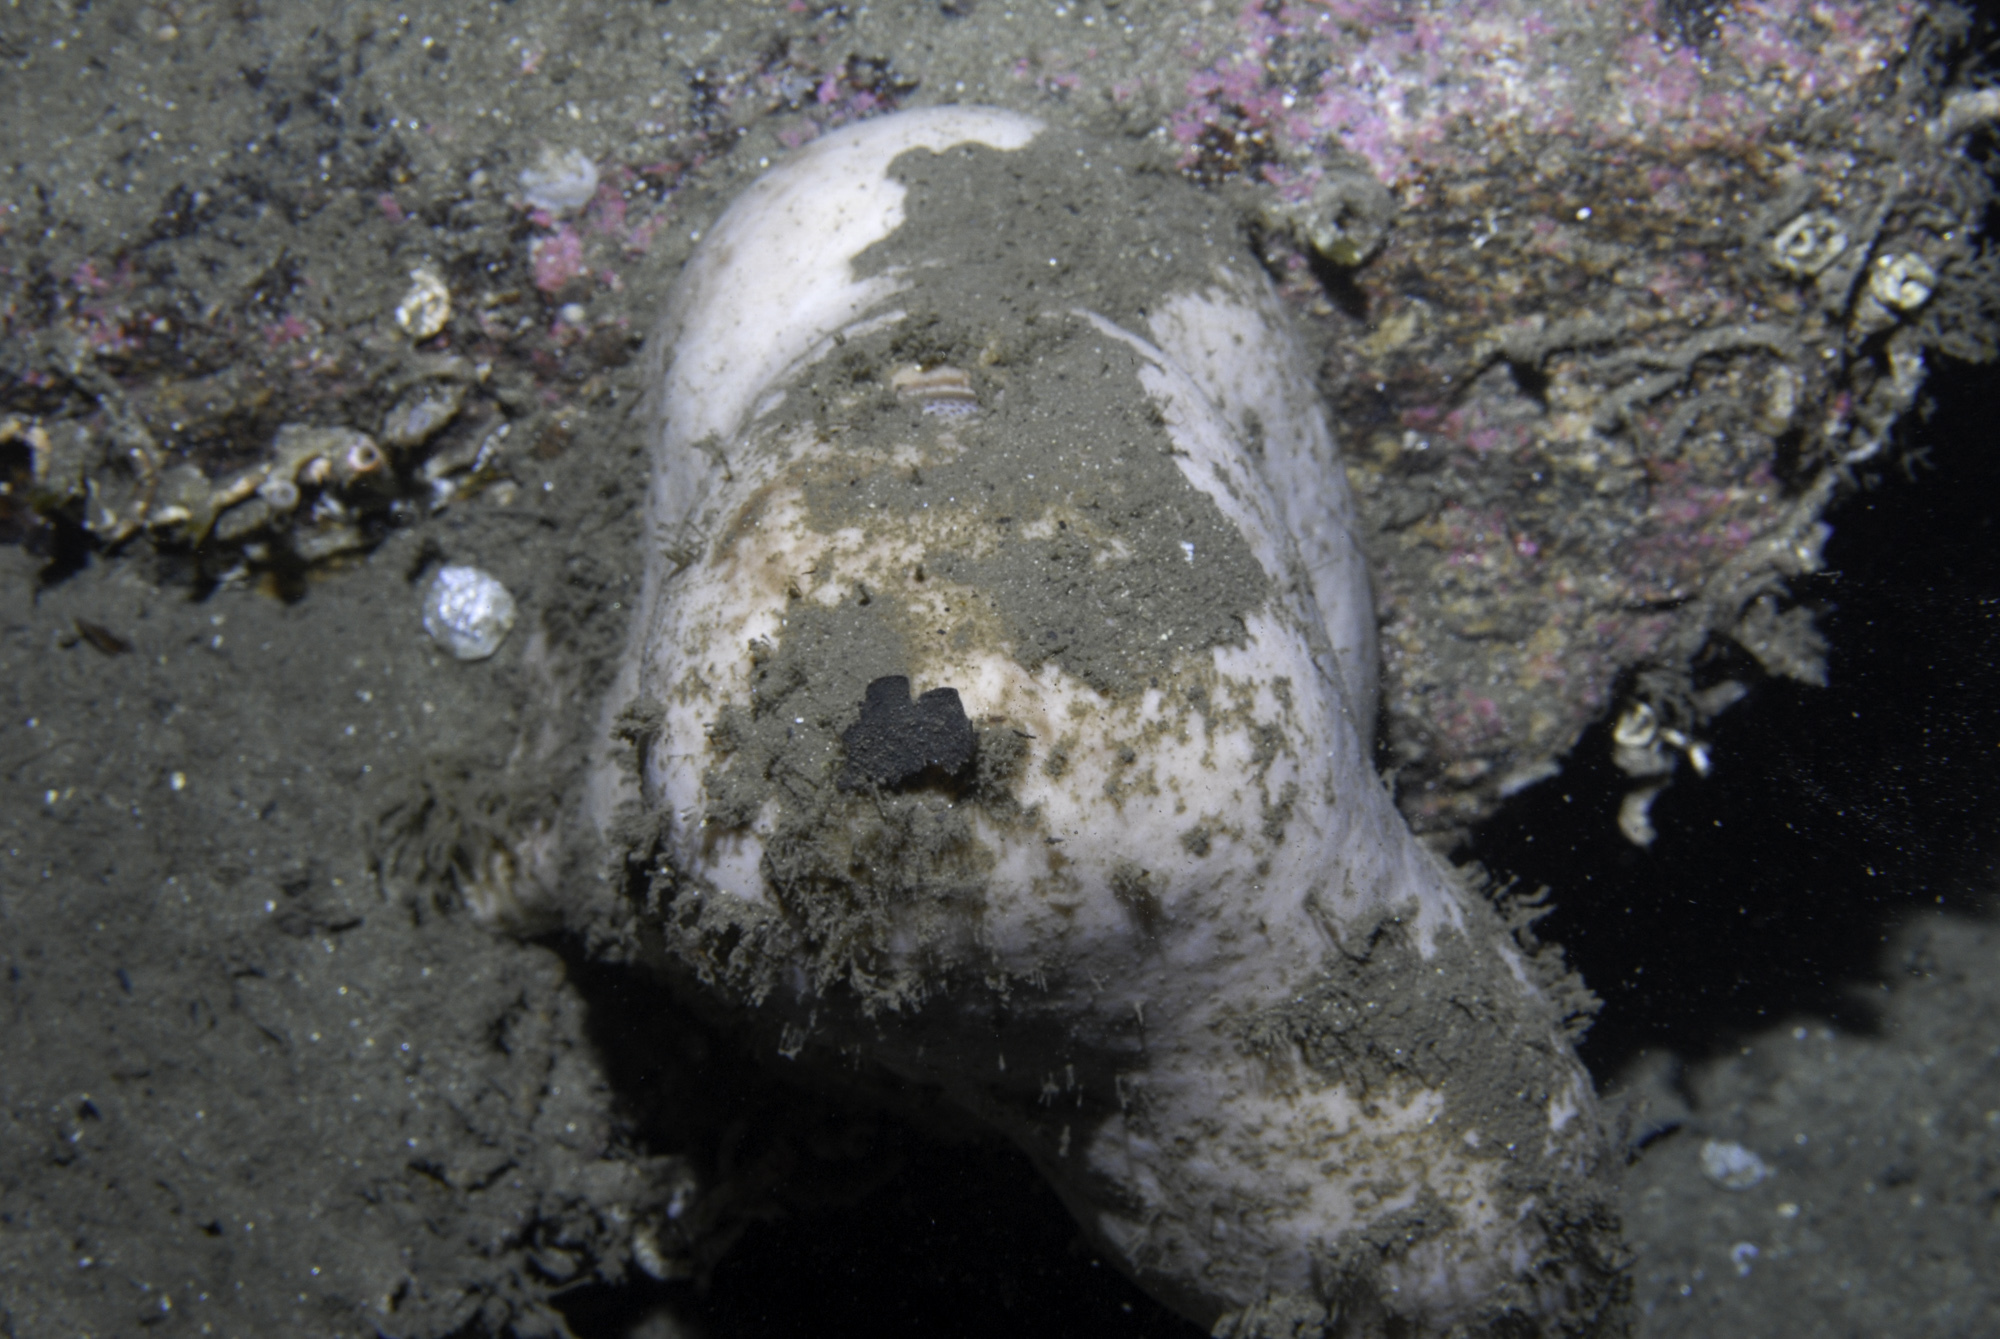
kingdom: Animalia
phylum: Porifera
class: Demospongiae
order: Tetractinellida
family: Geodiidae
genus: Geodia
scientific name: Geodia barretti
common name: Barrett's horny sponge
